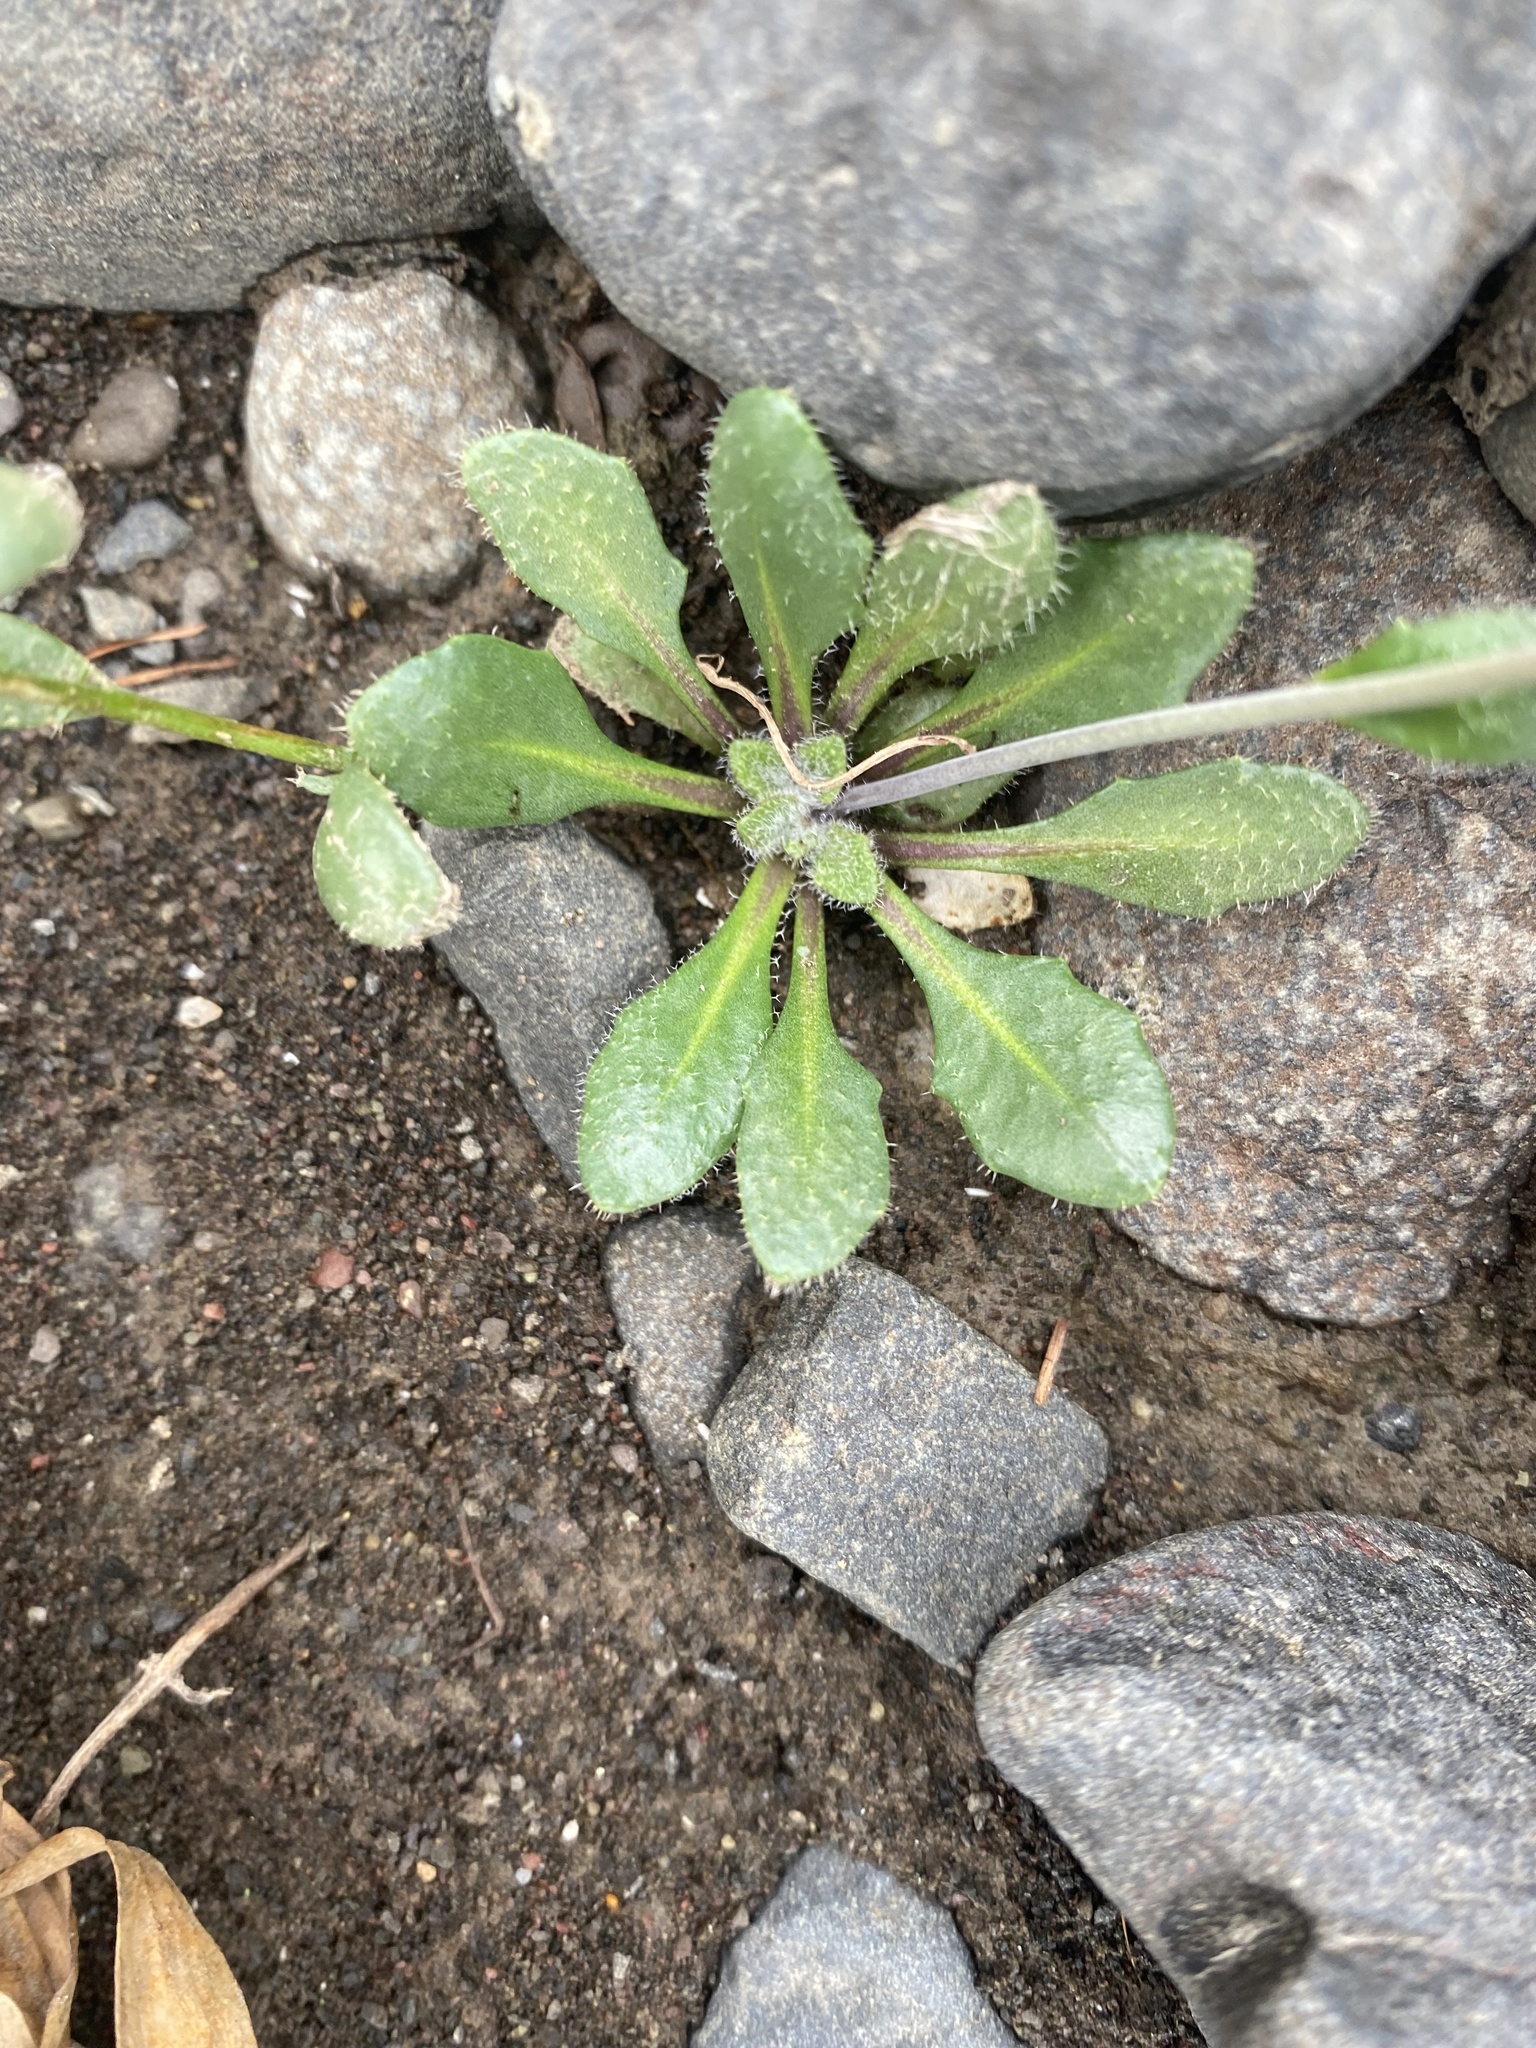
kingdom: Plantae
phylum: Tracheophyta
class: Magnoliopsida
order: Brassicales
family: Brassicaceae
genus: Arabidopsis
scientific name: Arabidopsis lyrata
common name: Lyrate rockcress
